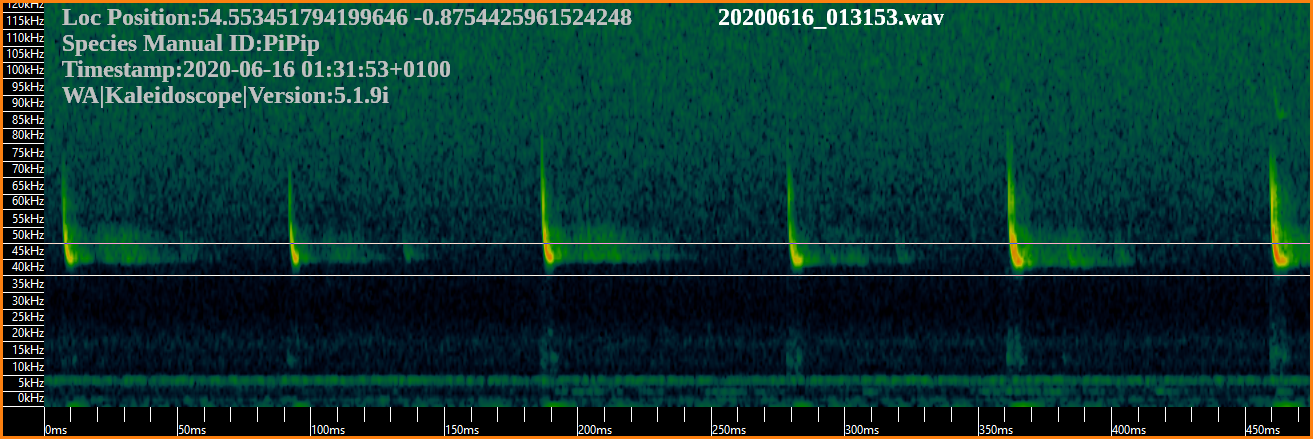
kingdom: Animalia
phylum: Chordata
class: Mammalia
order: Chiroptera
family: Vespertilionidae
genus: Pipistrellus
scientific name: Pipistrellus pipistrellus
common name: Common pipistrelle
